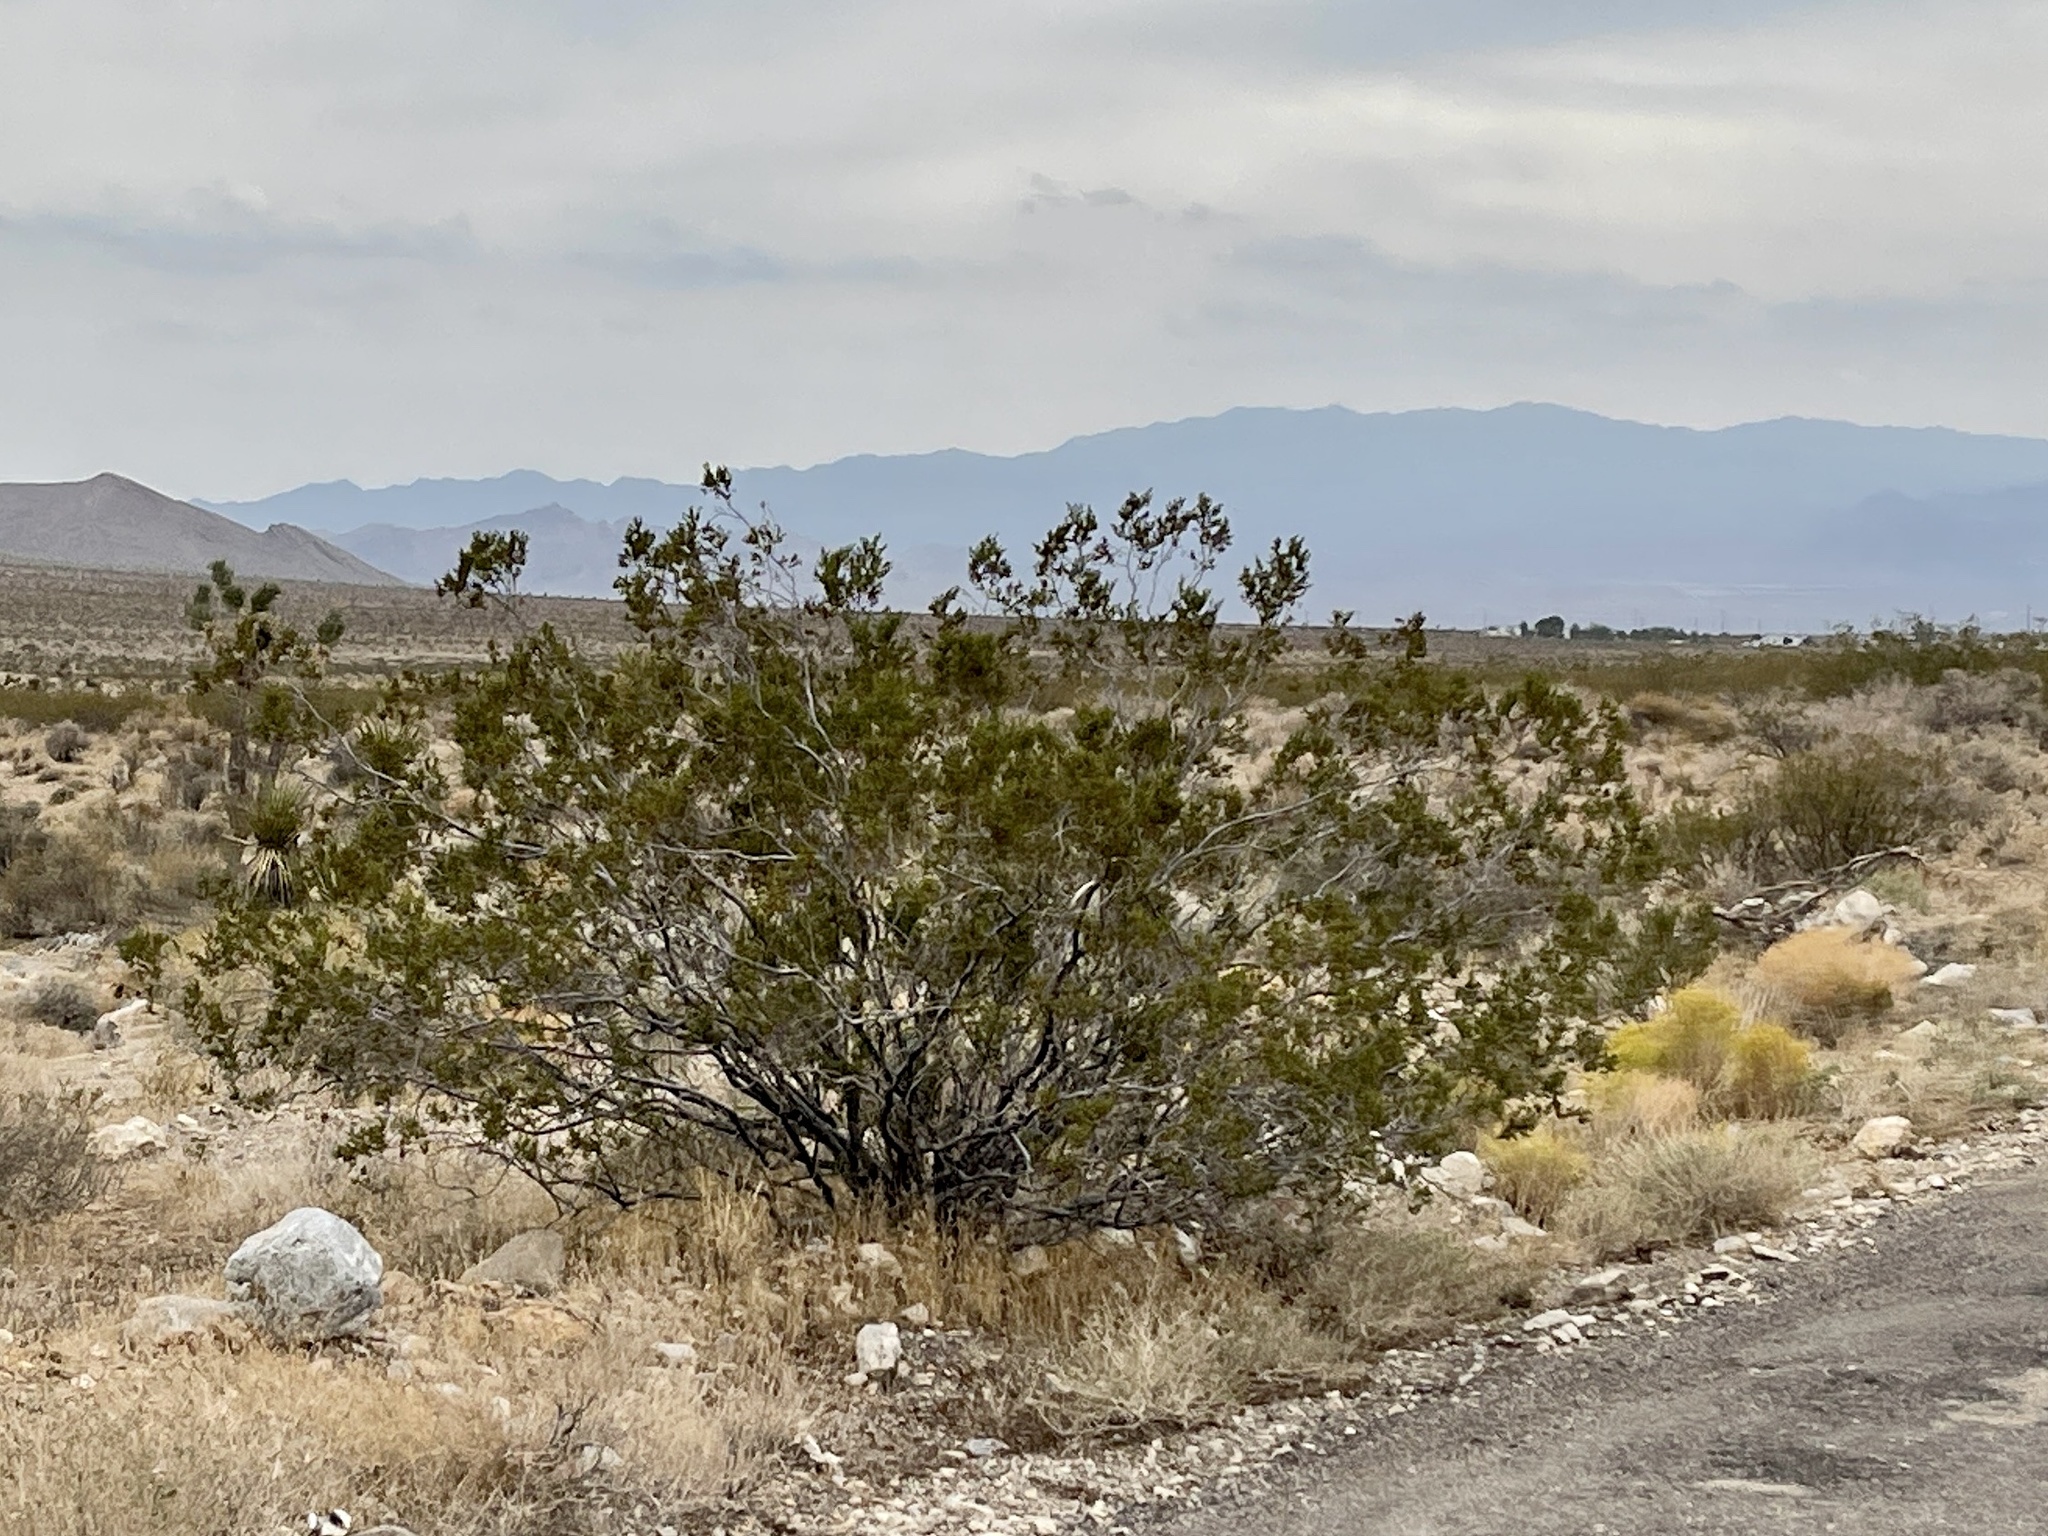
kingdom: Plantae
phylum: Tracheophyta
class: Magnoliopsida
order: Zygophyllales
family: Zygophyllaceae
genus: Larrea
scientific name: Larrea tridentata
